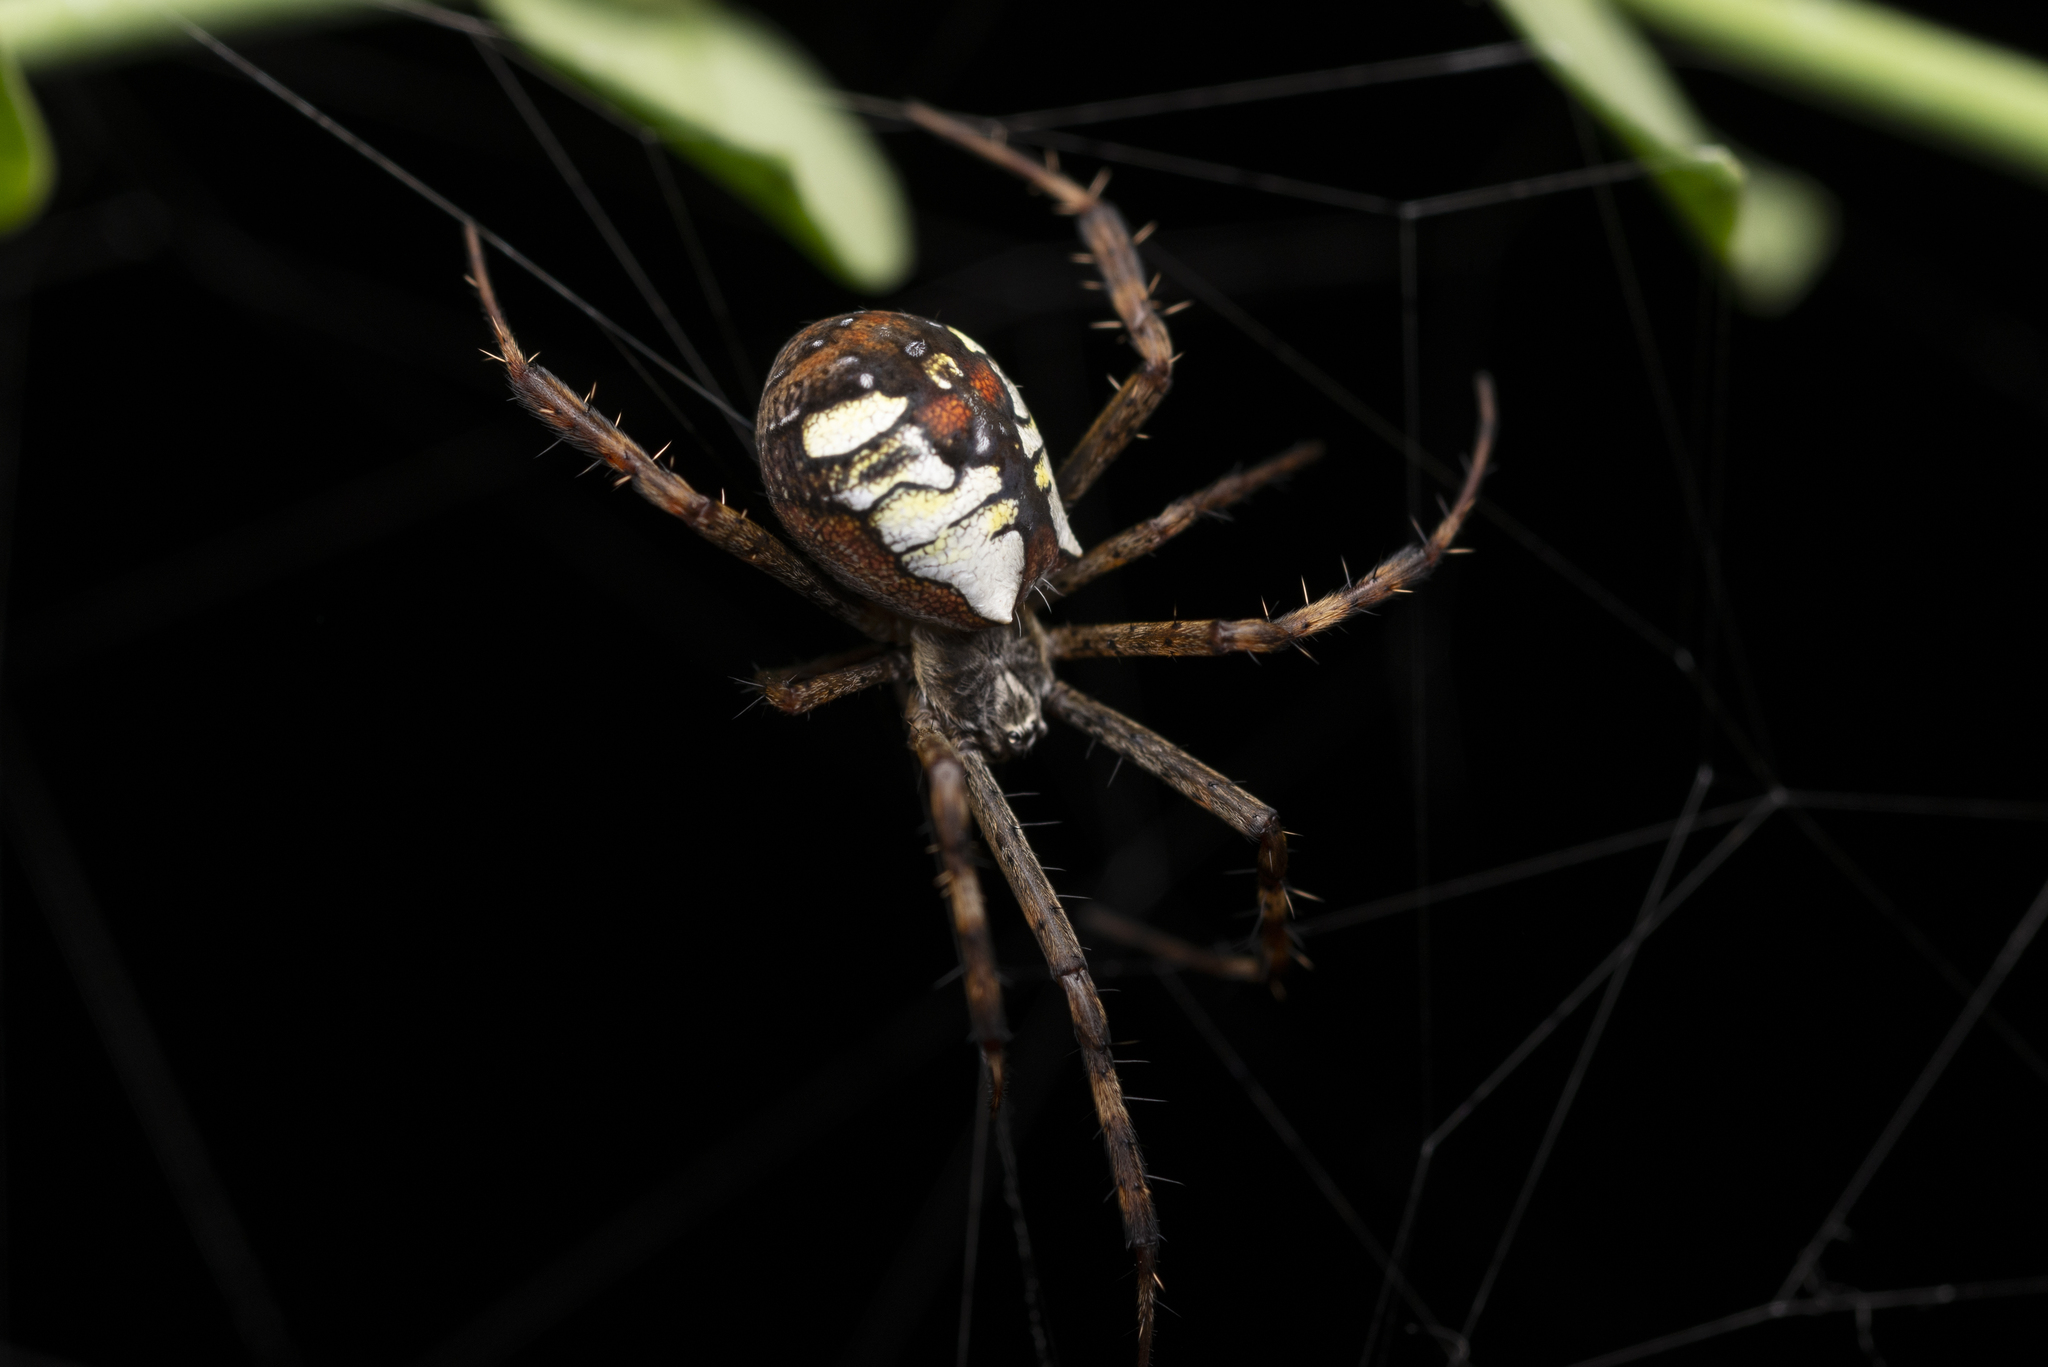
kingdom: Animalia
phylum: Arthropoda
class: Arachnida
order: Araneae
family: Araneidae
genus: Argiope
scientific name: Argiope perforata
